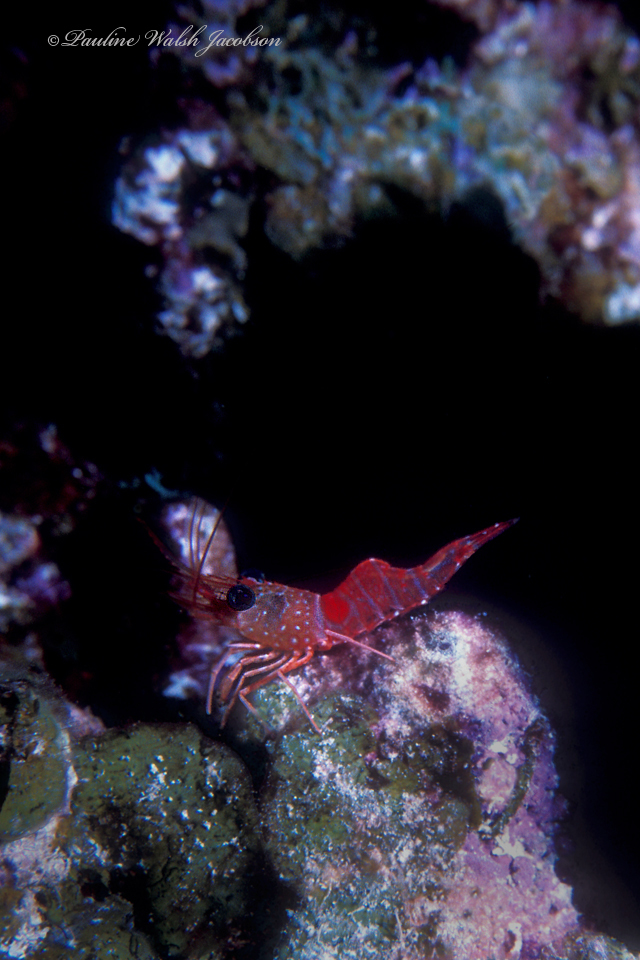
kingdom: Animalia
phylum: Arthropoda
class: Malacostraca
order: Decapoda
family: Rhynchocinetidae
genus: Cinetorhynchus
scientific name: Cinetorhynchus manningi
